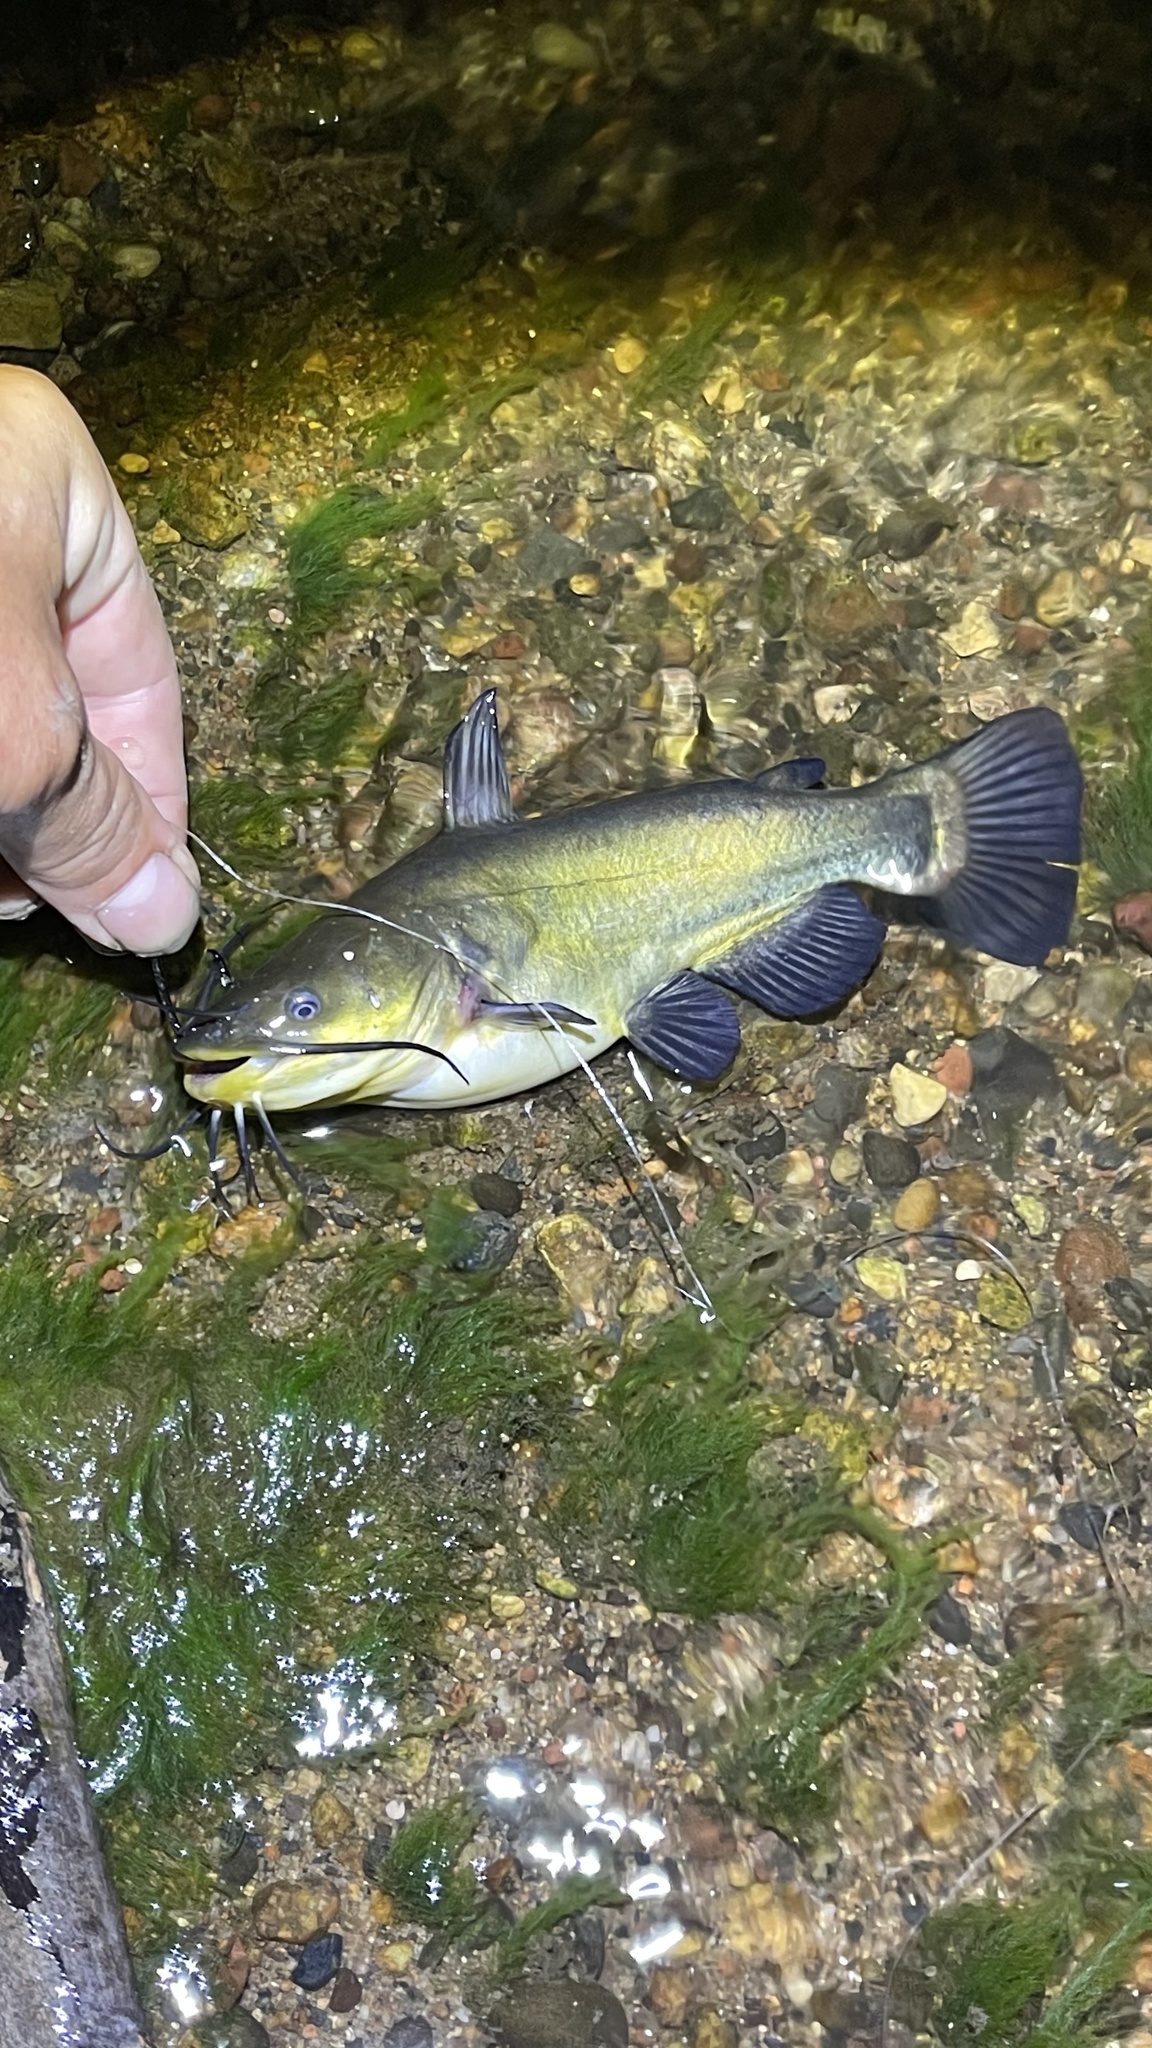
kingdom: Animalia
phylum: Chordata
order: Siluriformes
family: Ictaluridae
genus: Ameiurus
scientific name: Ameiurus melas
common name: Black bullhead
